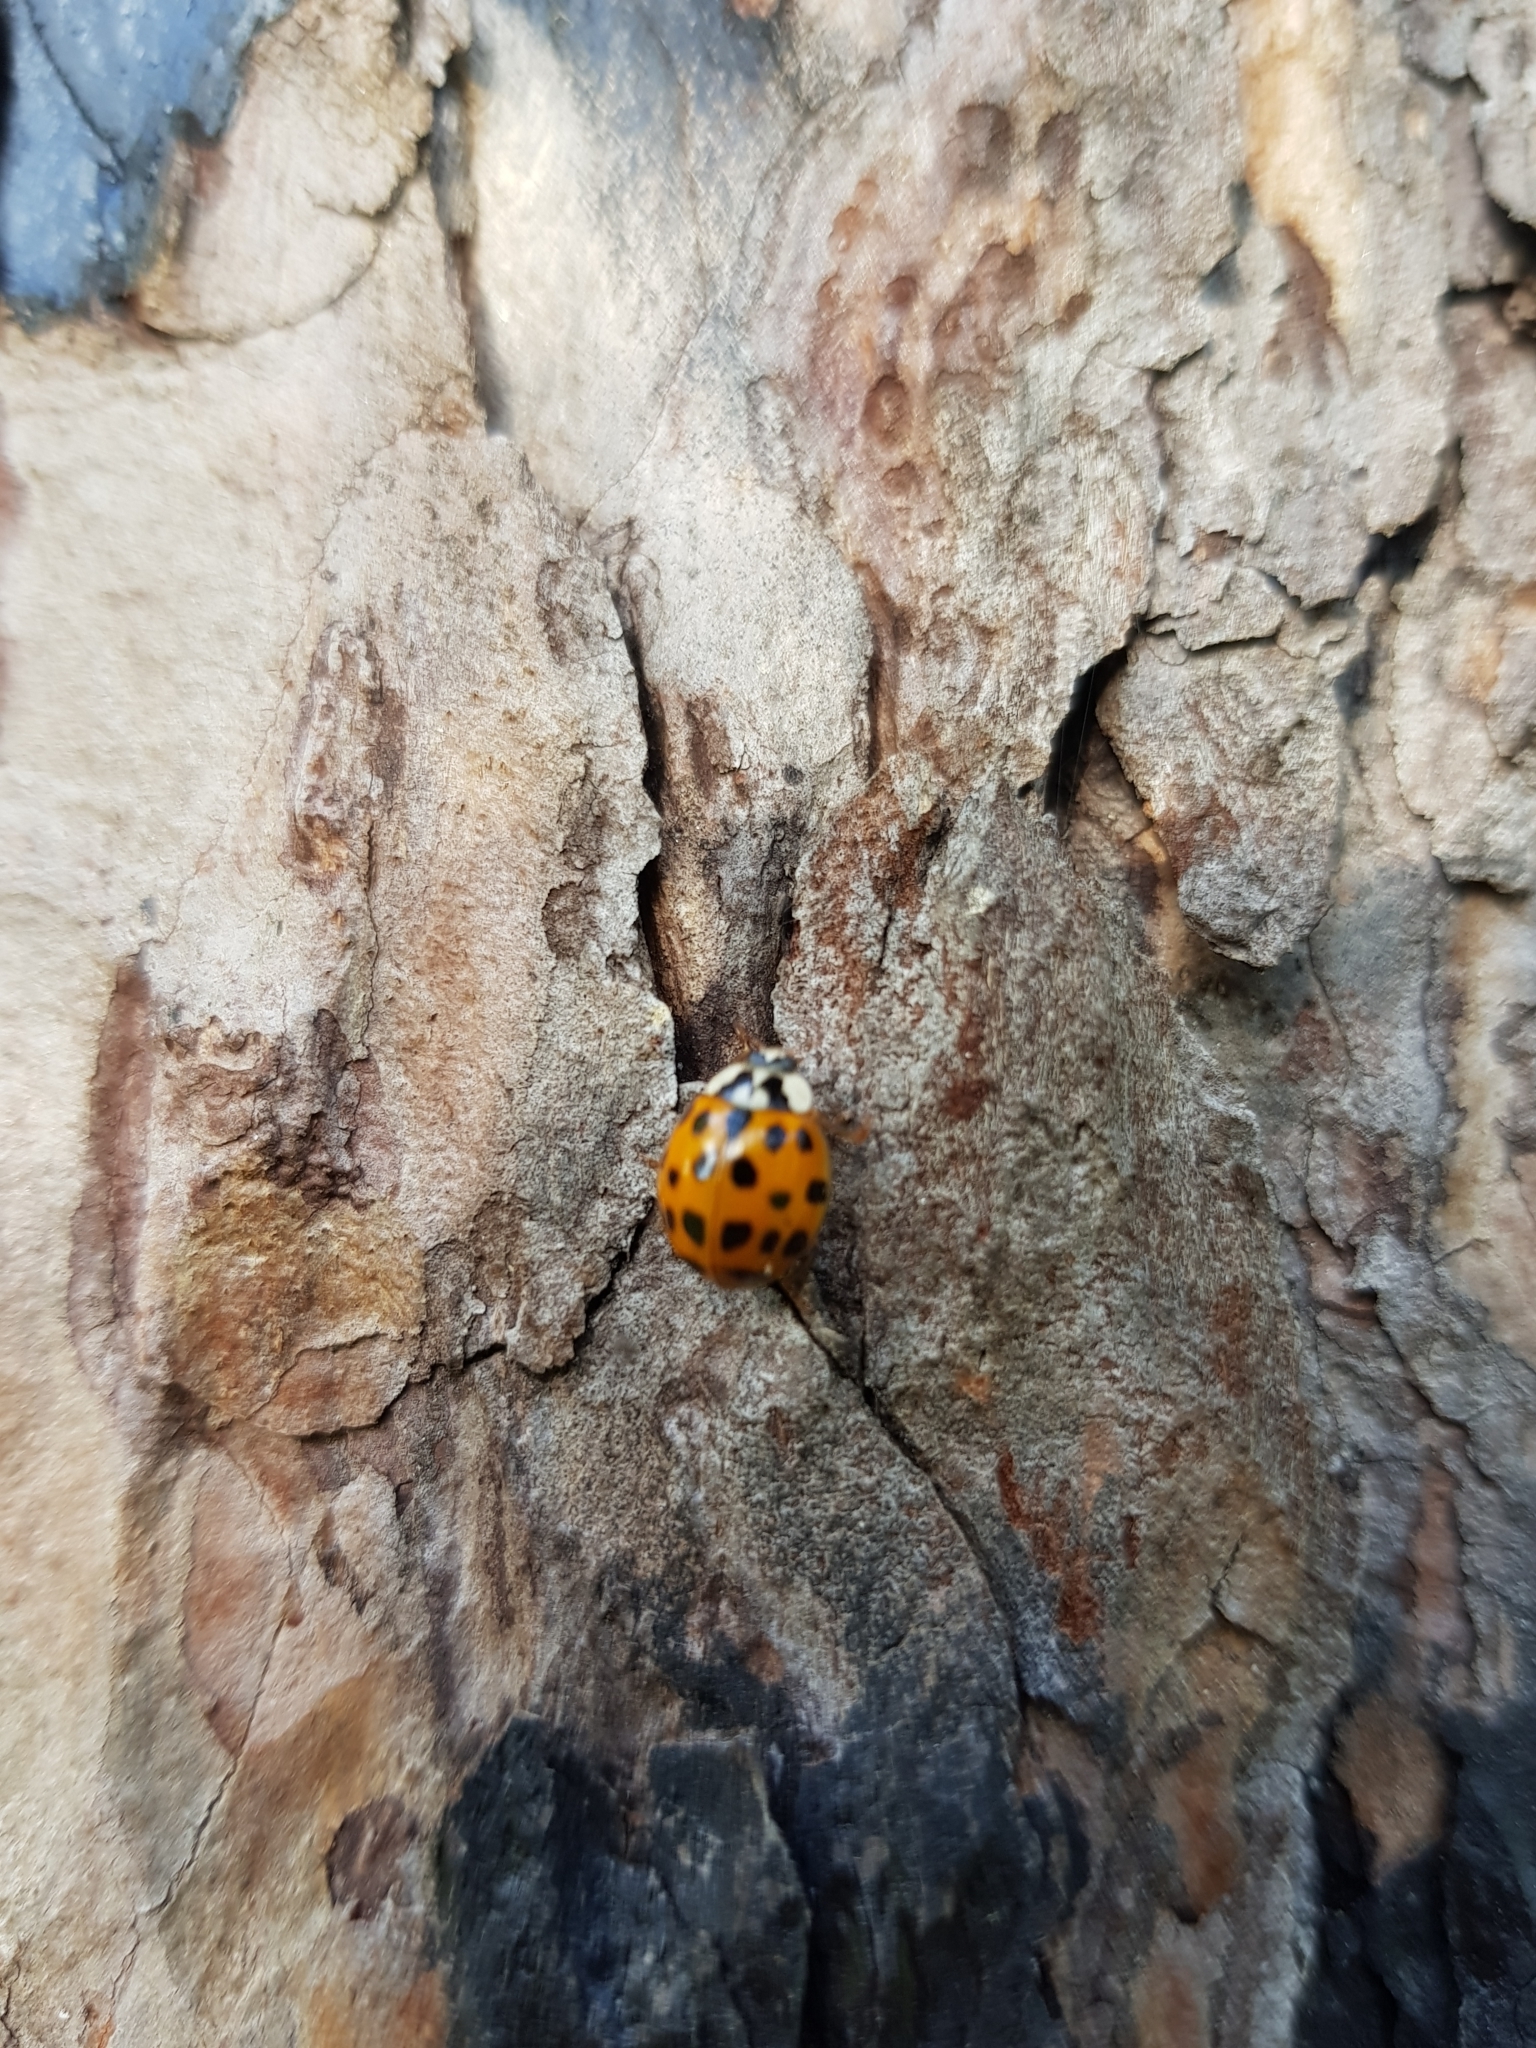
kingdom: Animalia
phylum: Arthropoda
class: Insecta
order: Coleoptera
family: Coccinellidae
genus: Harmonia
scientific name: Harmonia axyridis
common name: Harlequin ladybird
